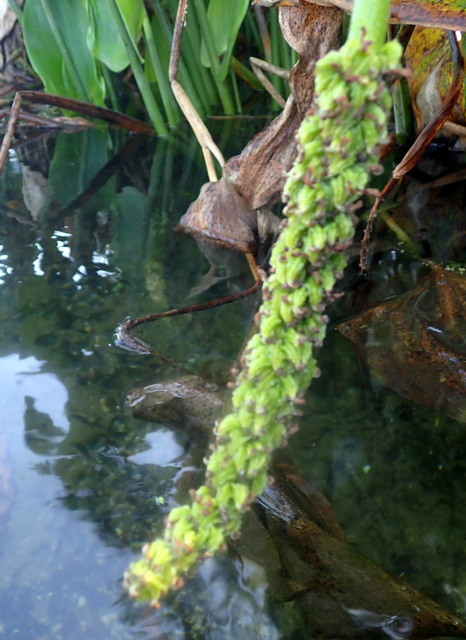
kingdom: Plantae
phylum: Tracheophyta
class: Liliopsida
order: Commelinales
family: Pontederiaceae
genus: Pontederia
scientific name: Pontederia cordata
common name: Pickerelweed
